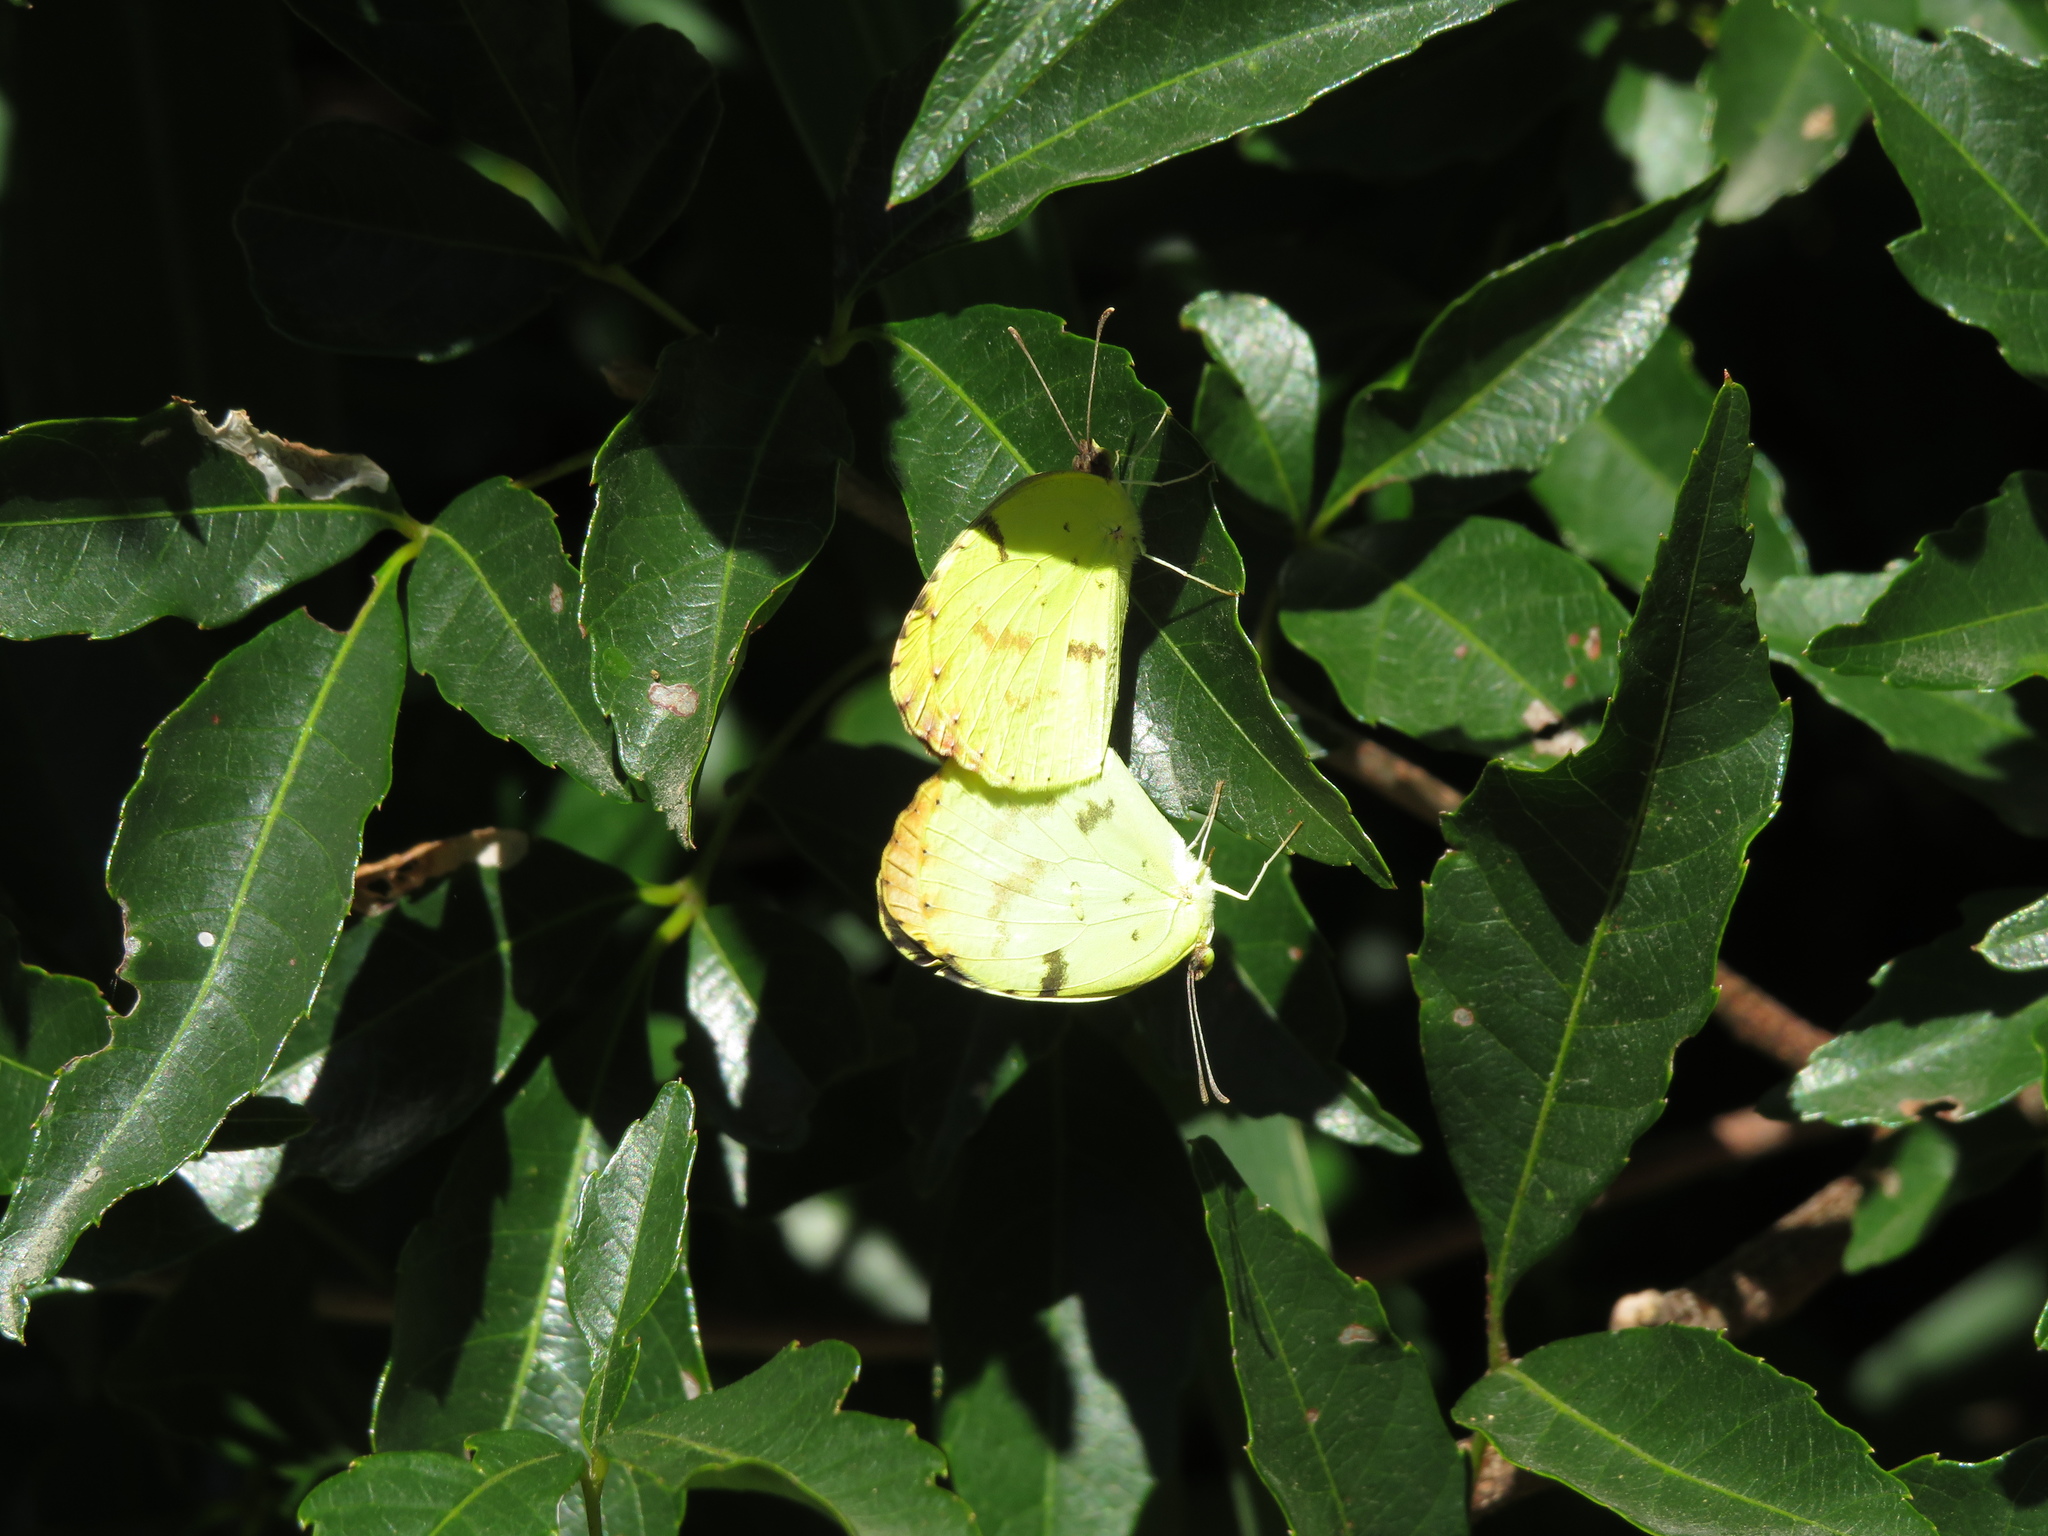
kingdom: Animalia
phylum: Arthropoda
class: Insecta
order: Lepidoptera
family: Pieridae
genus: Teriocolias
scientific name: Teriocolias
